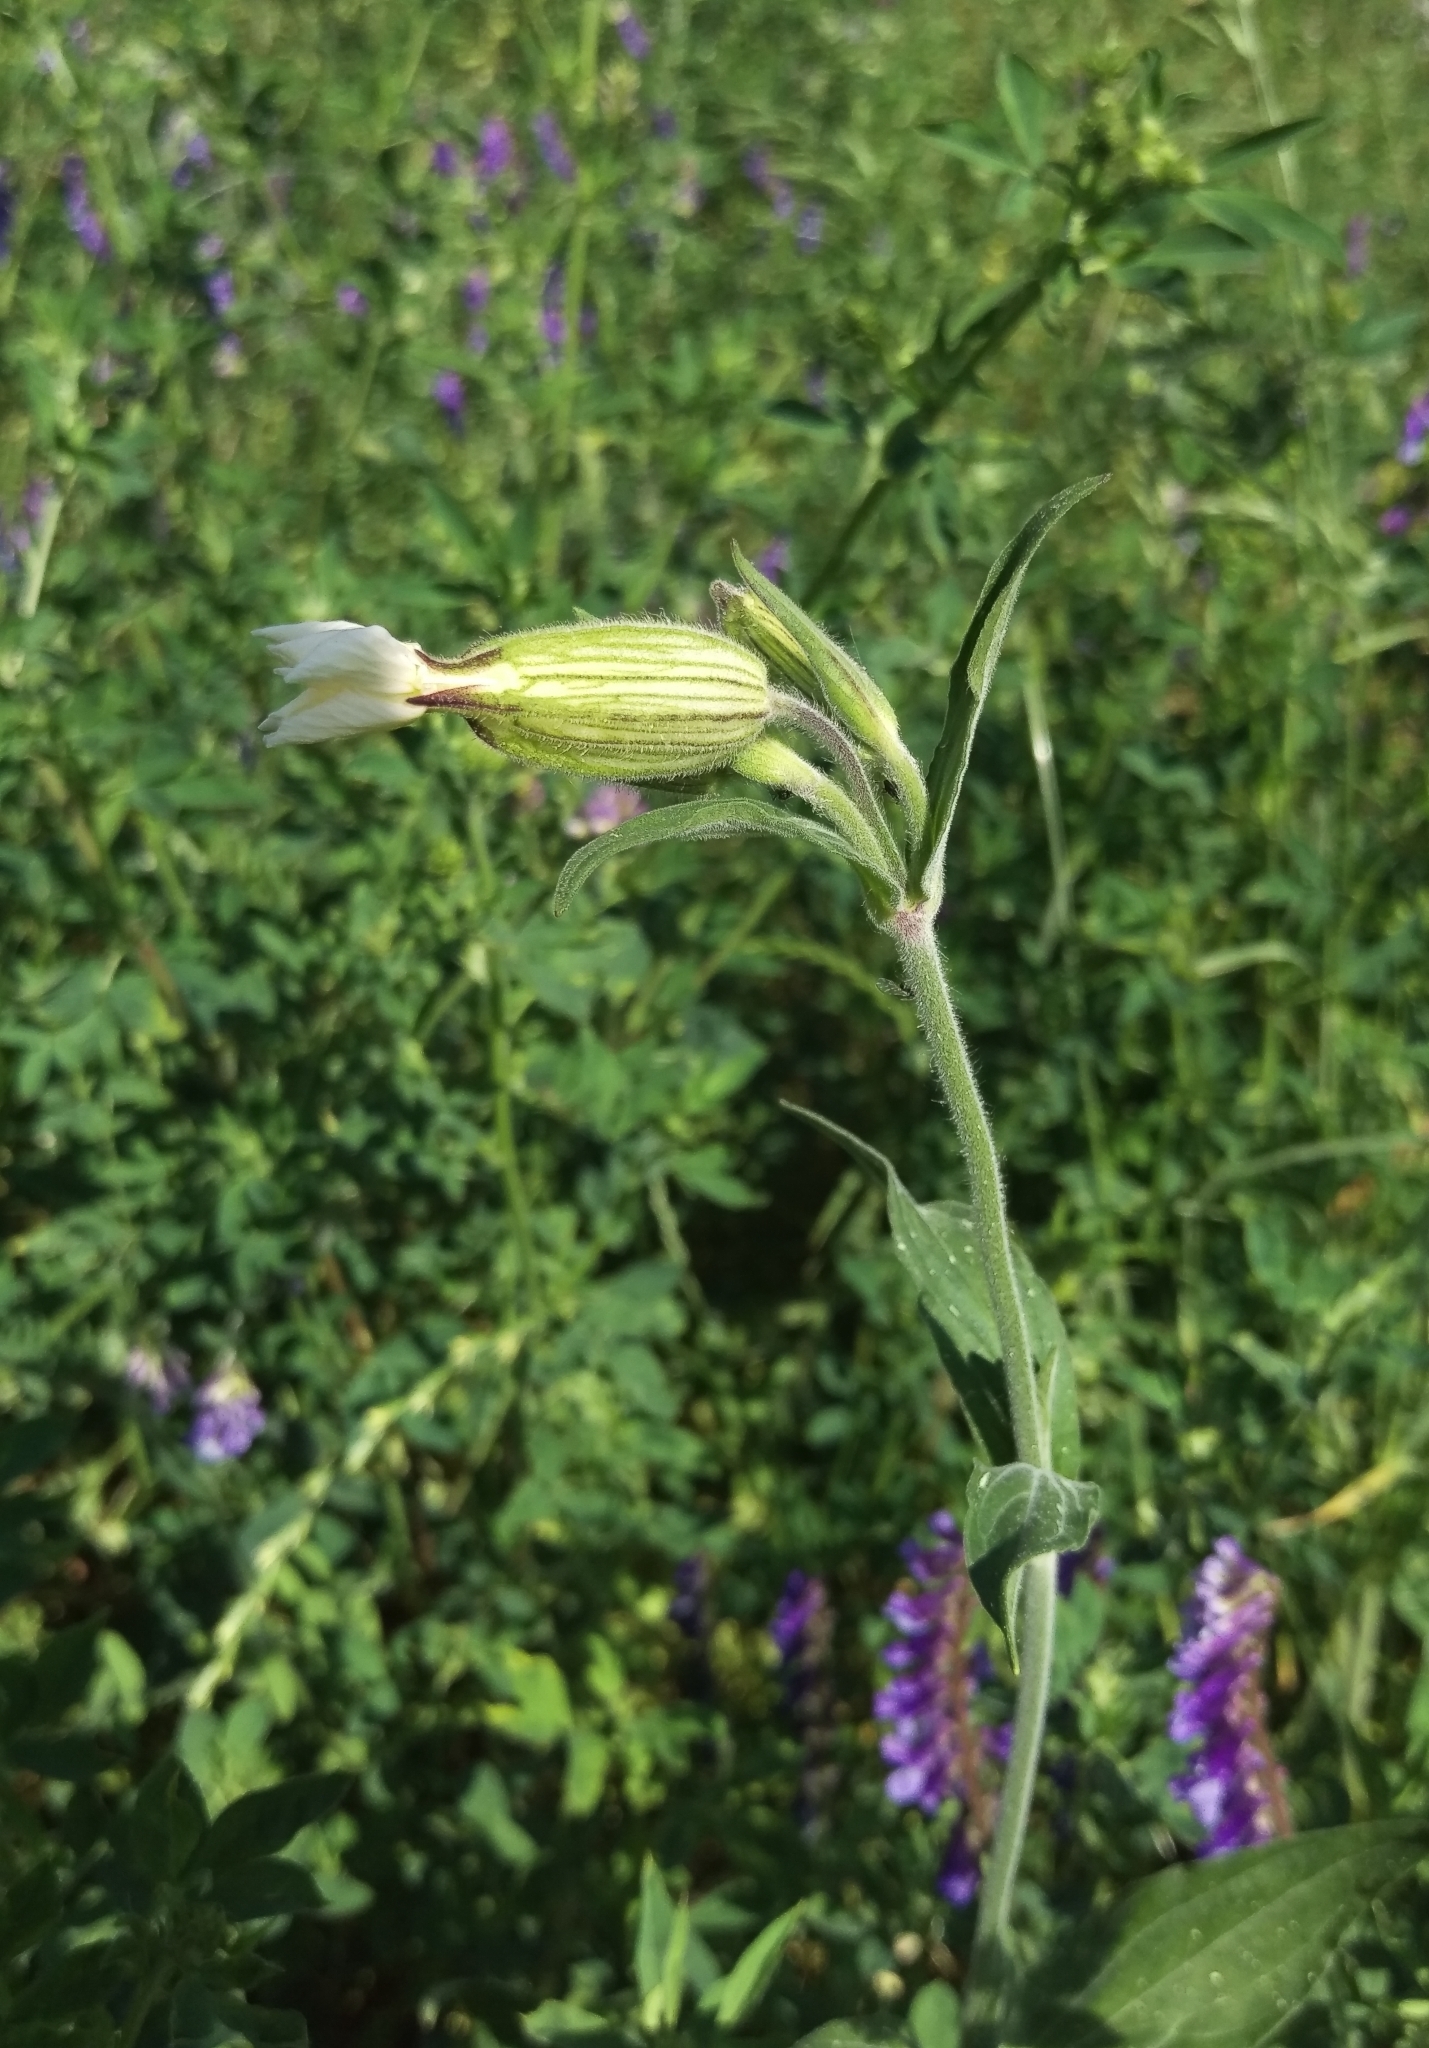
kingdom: Plantae
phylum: Tracheophyta
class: Magnoliopsida
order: Caryophyllales
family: Caryophyllaceae
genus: Silene
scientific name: Silene latifolia
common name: White campion
